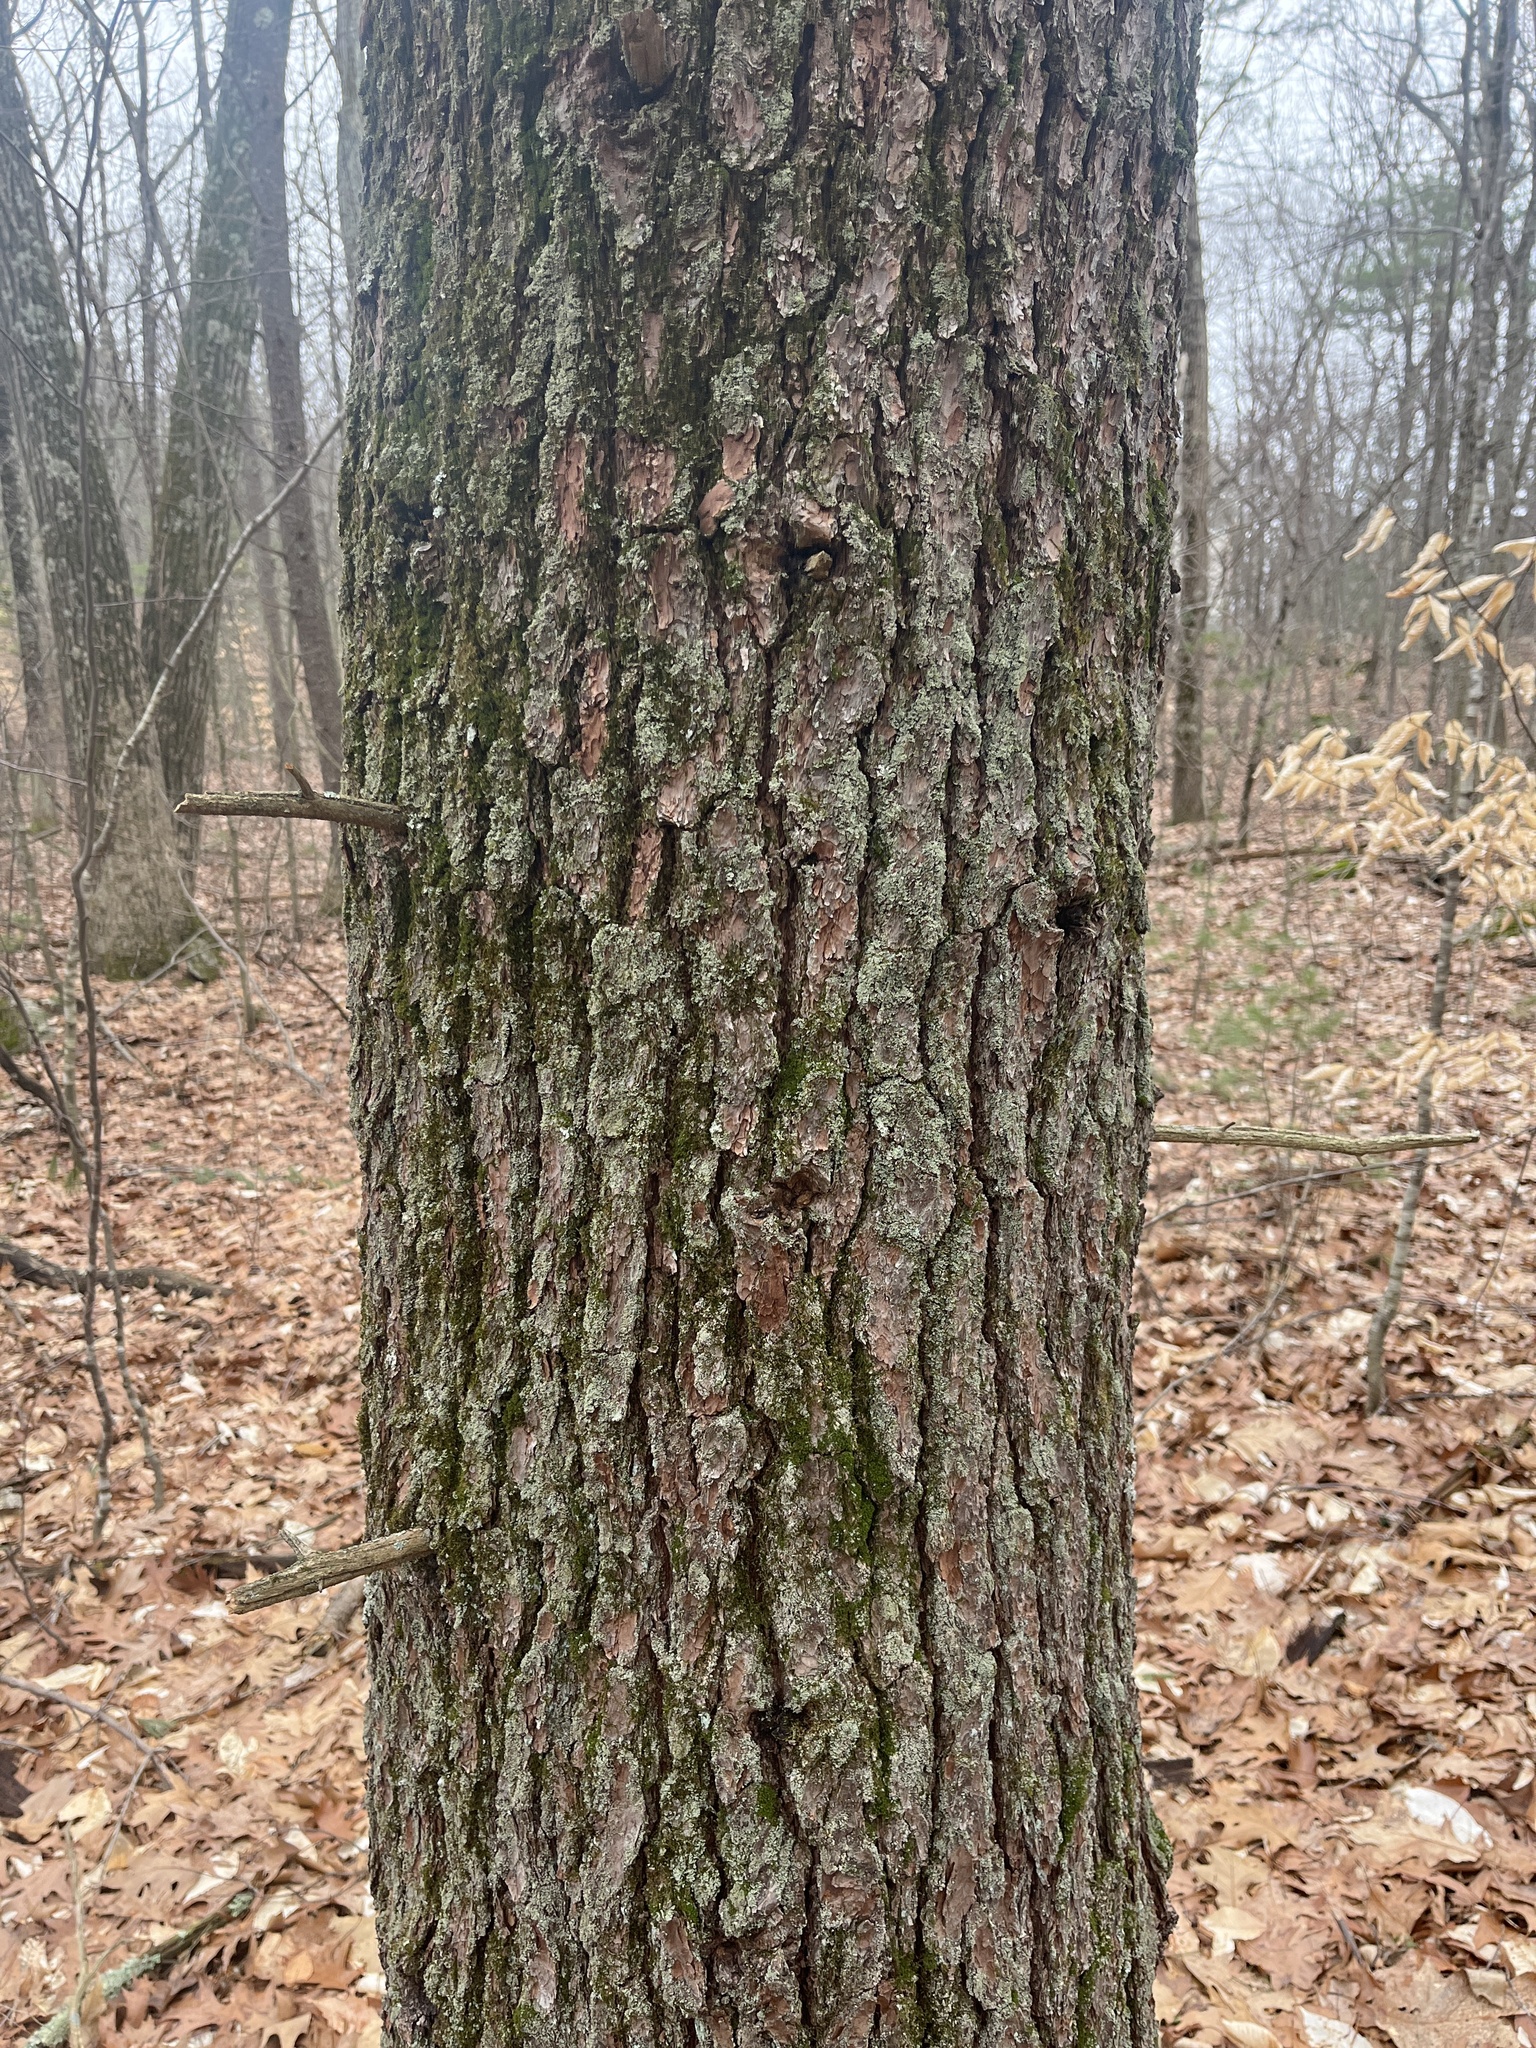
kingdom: Plantae
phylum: Tracheophyta
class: Pinopsida
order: Pinales
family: Pinaceae
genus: Pinus
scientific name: Pinus strobus
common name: Weymouth pine
